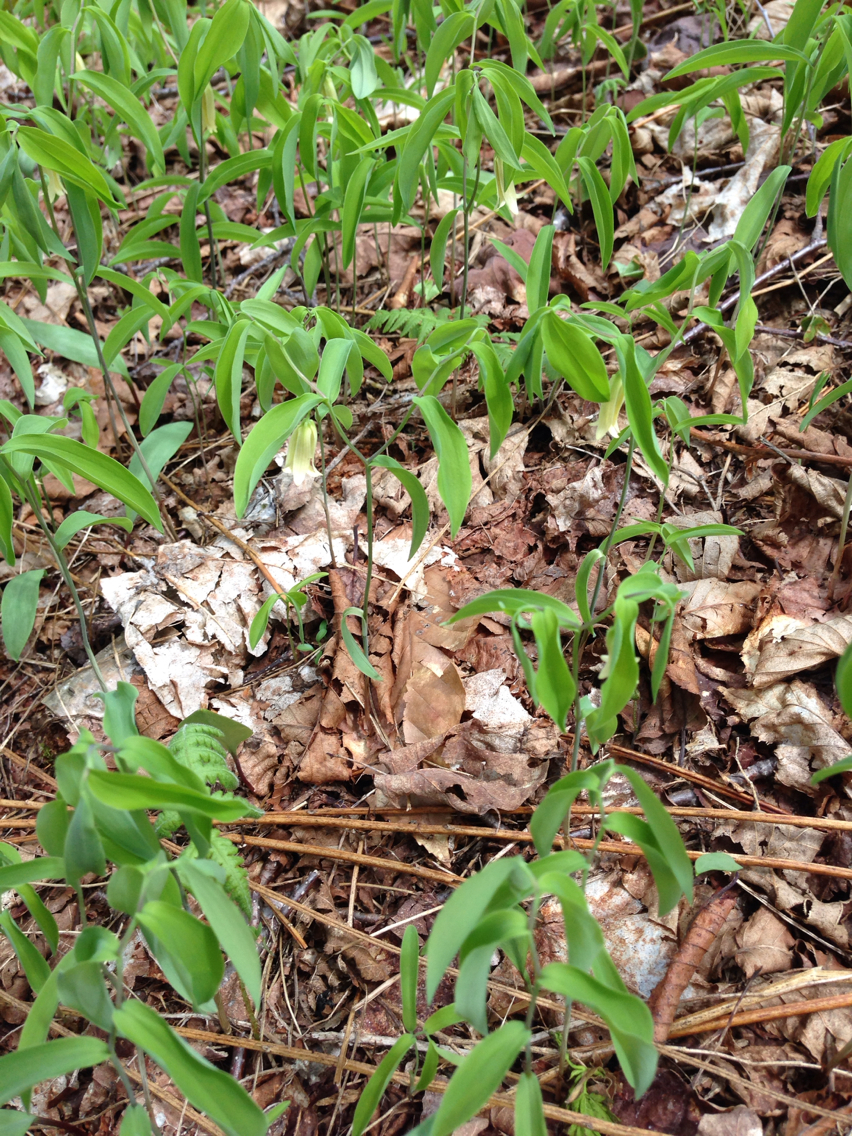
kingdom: Plantae
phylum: Tracheophyta
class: Liliopsida
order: Liliales
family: Colchicaceae
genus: Uvularia
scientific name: Uvularia sessilifolia
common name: Straw-lily
